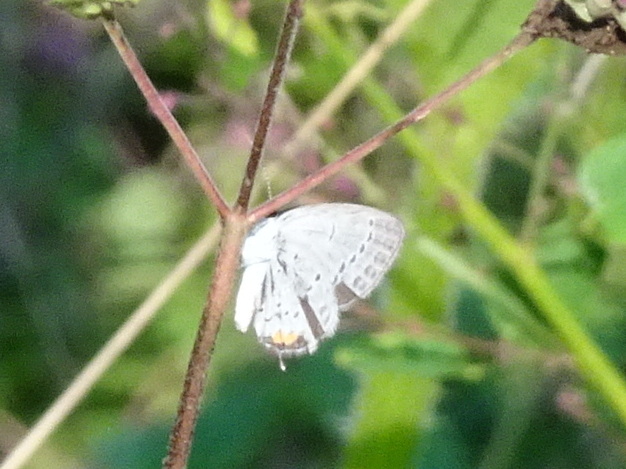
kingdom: Animalia
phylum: Arthropoda
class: Insecta
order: Lepidoptera
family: Lycaenidae
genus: Elkalyce
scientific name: Elkalyce comyntas
